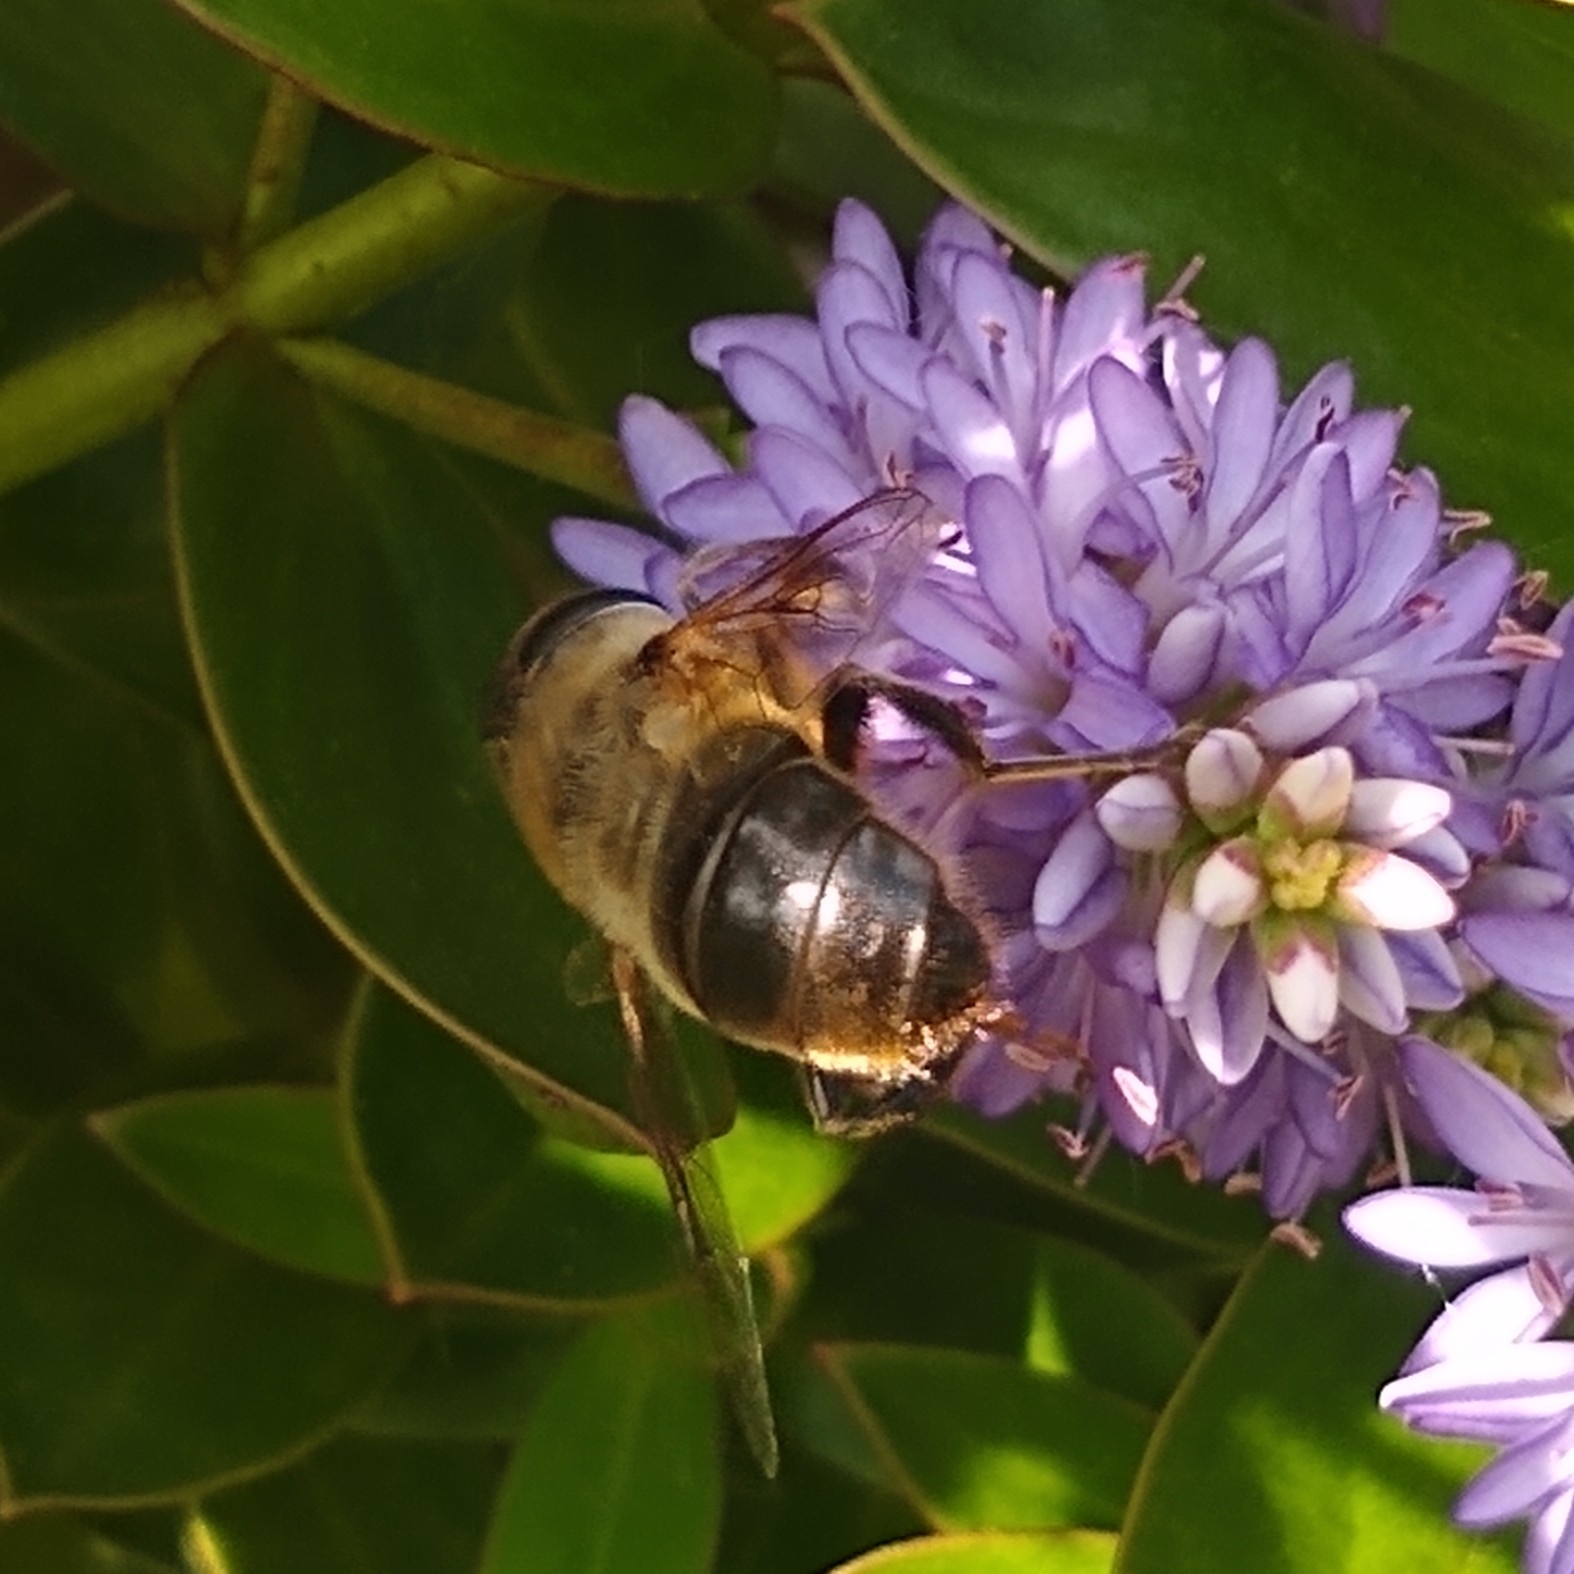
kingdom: Animalia
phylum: Arthropoda
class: Insecta
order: Diptera
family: Syrphidae
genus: Eristalis
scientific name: Eristalis tenax
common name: Drone fly
